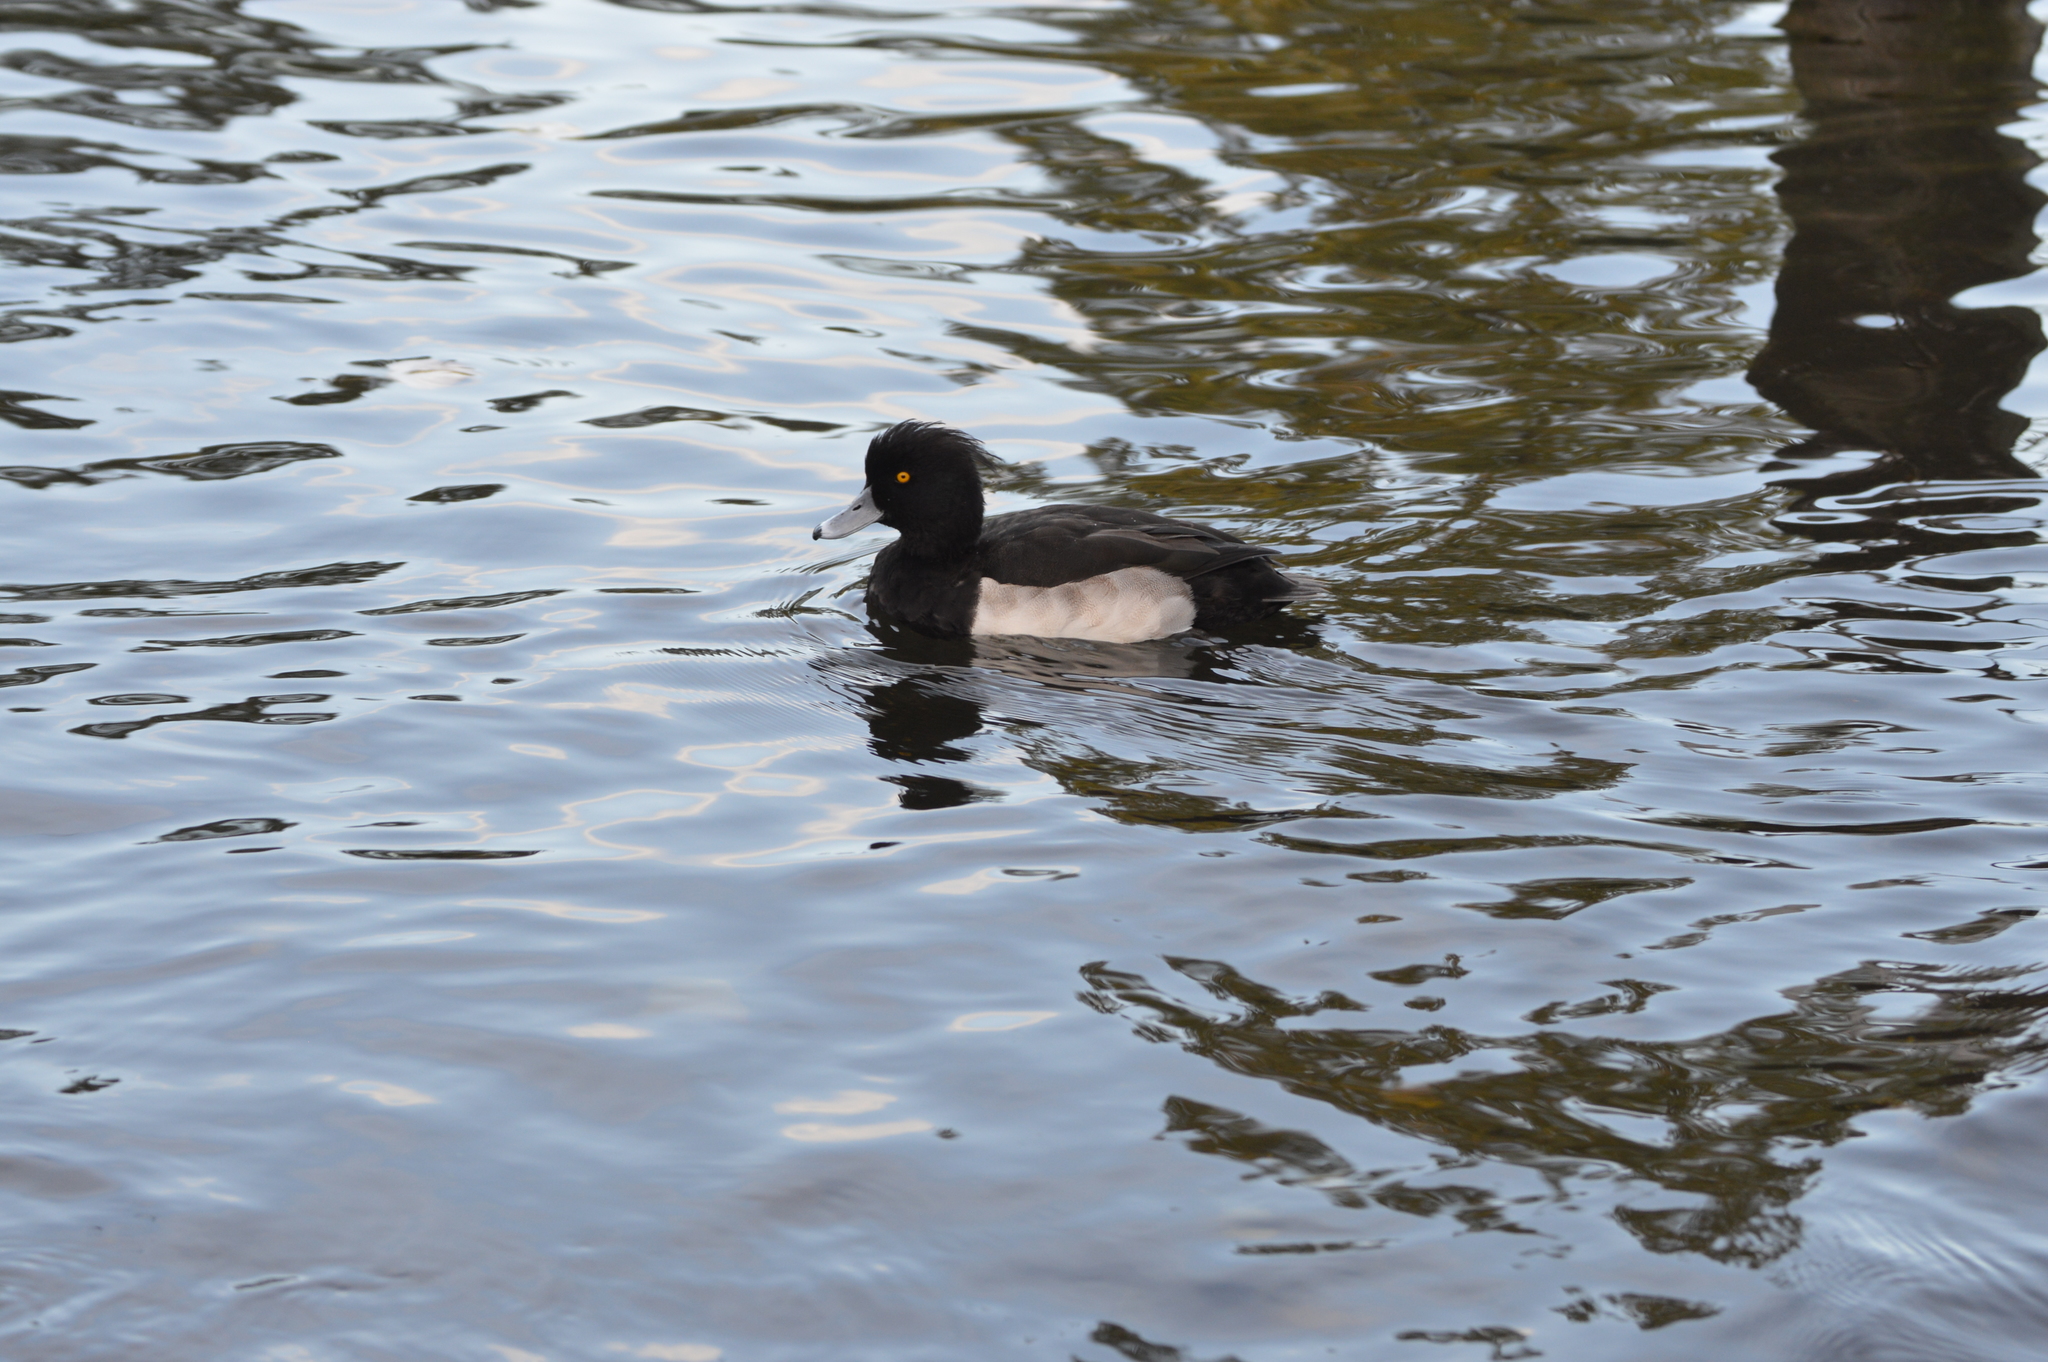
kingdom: Animalia
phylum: Chordata
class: Aves
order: Anseriformes
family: Anatidae
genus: Aythya
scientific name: Aythya fuligula
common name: Tufted duck
